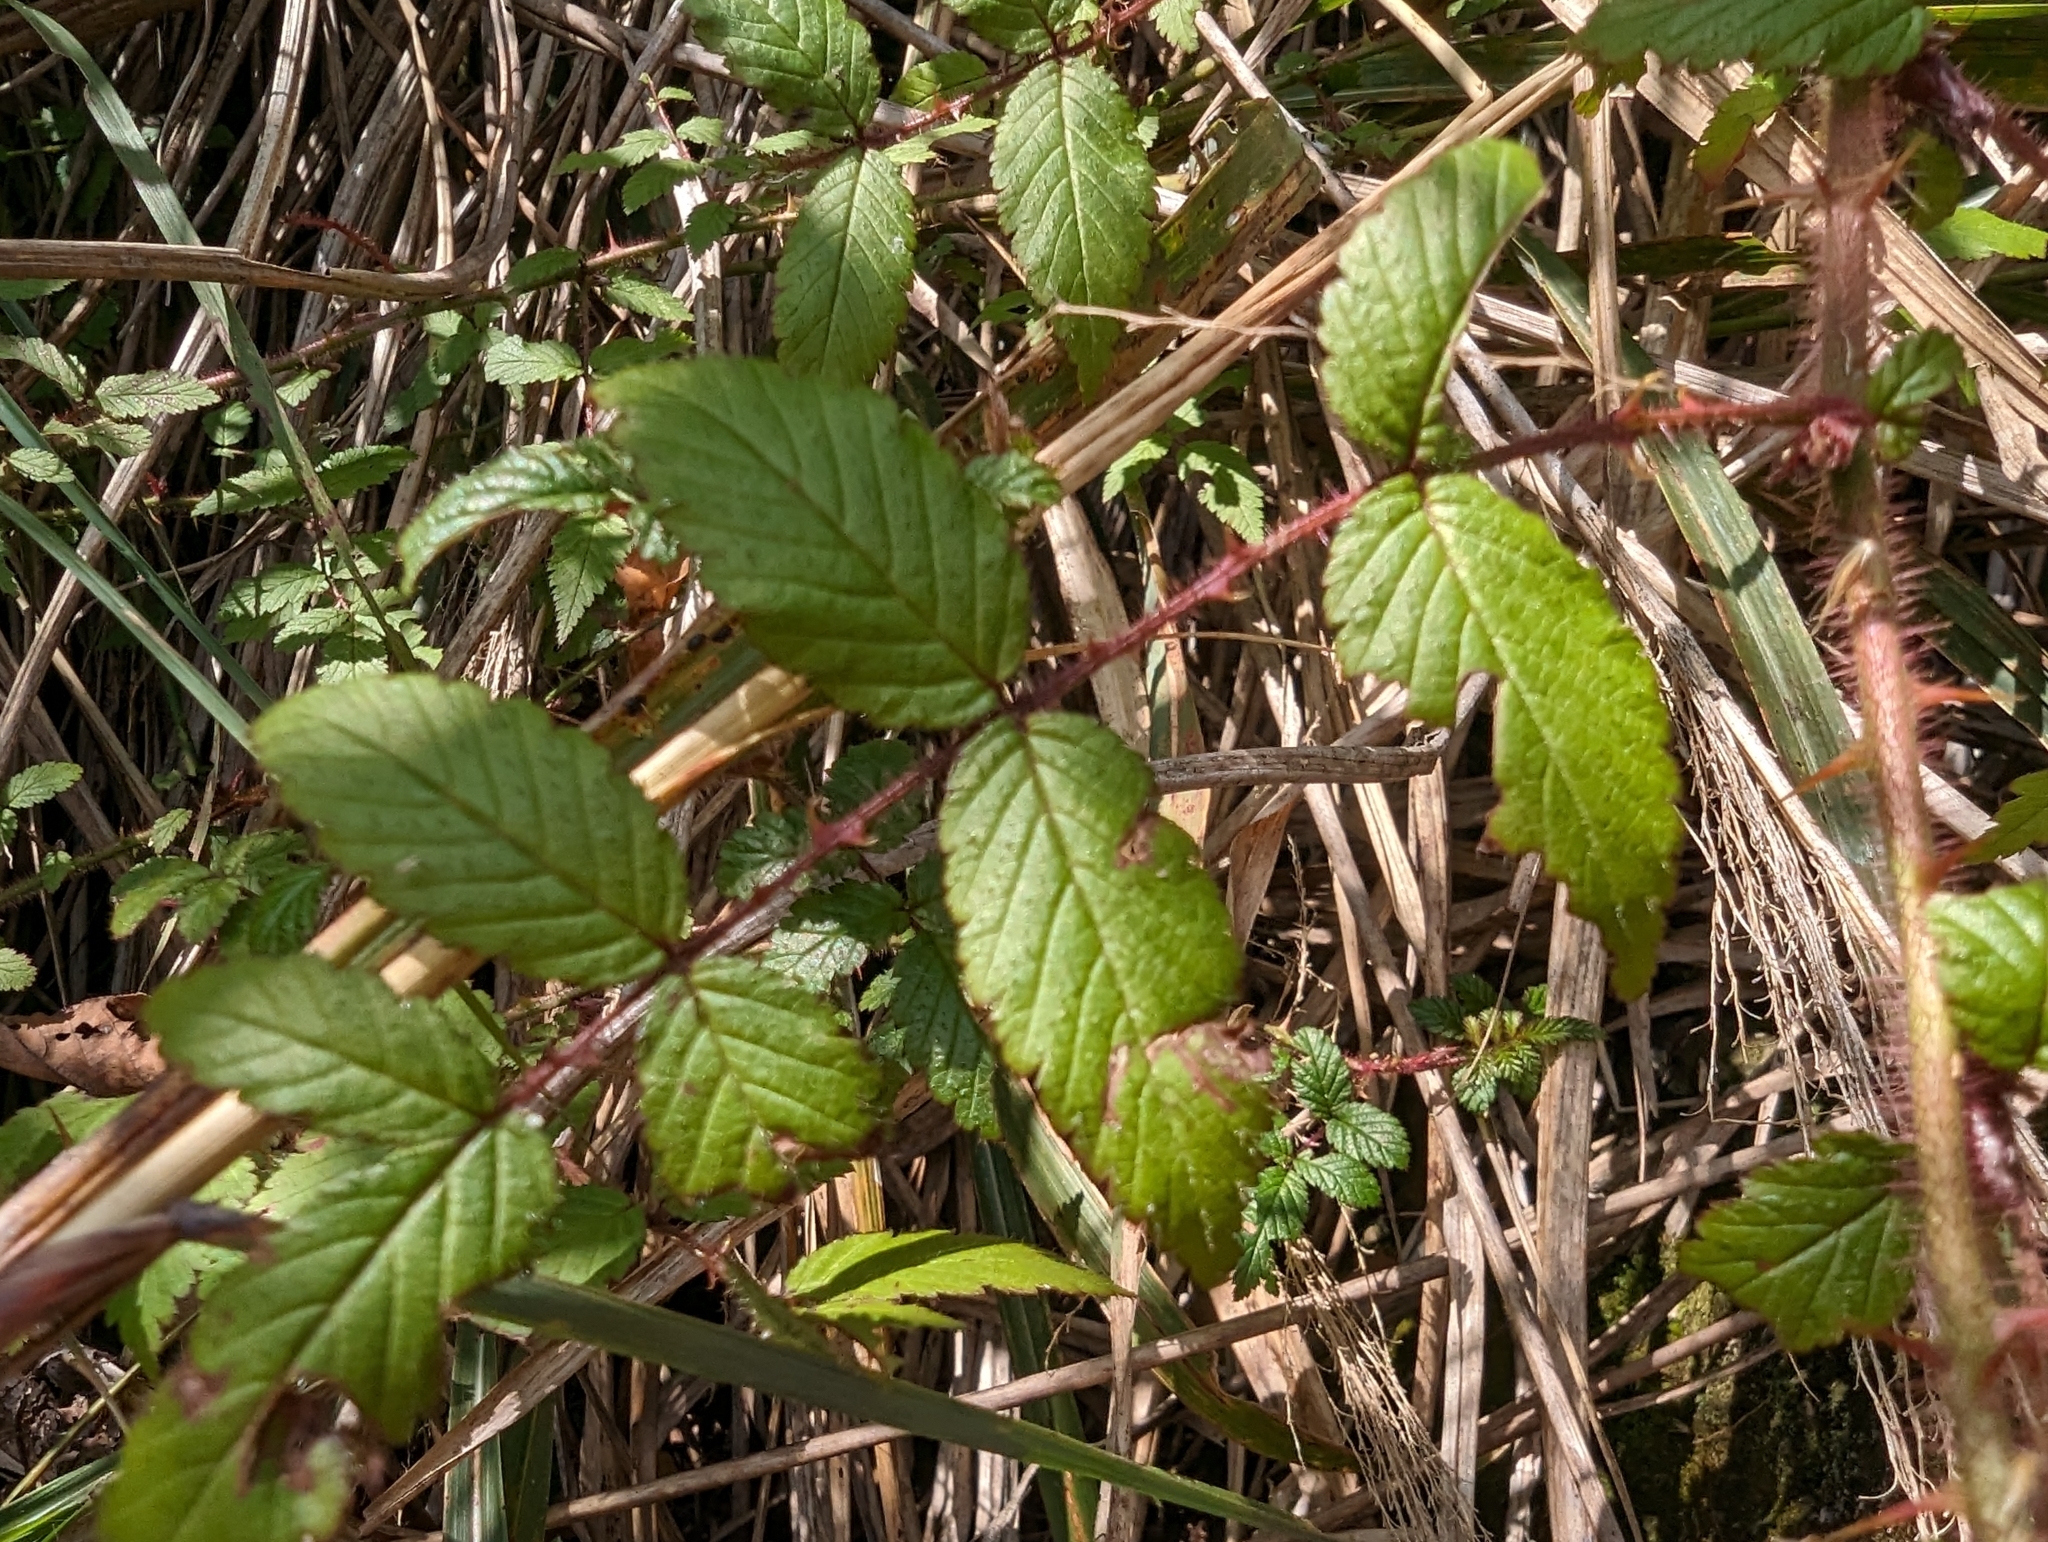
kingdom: Plantae
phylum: Tracheophyta
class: Magnoliopsida
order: Rosales
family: Rosaceae
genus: Rubus
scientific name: Rubus croceacanthus
